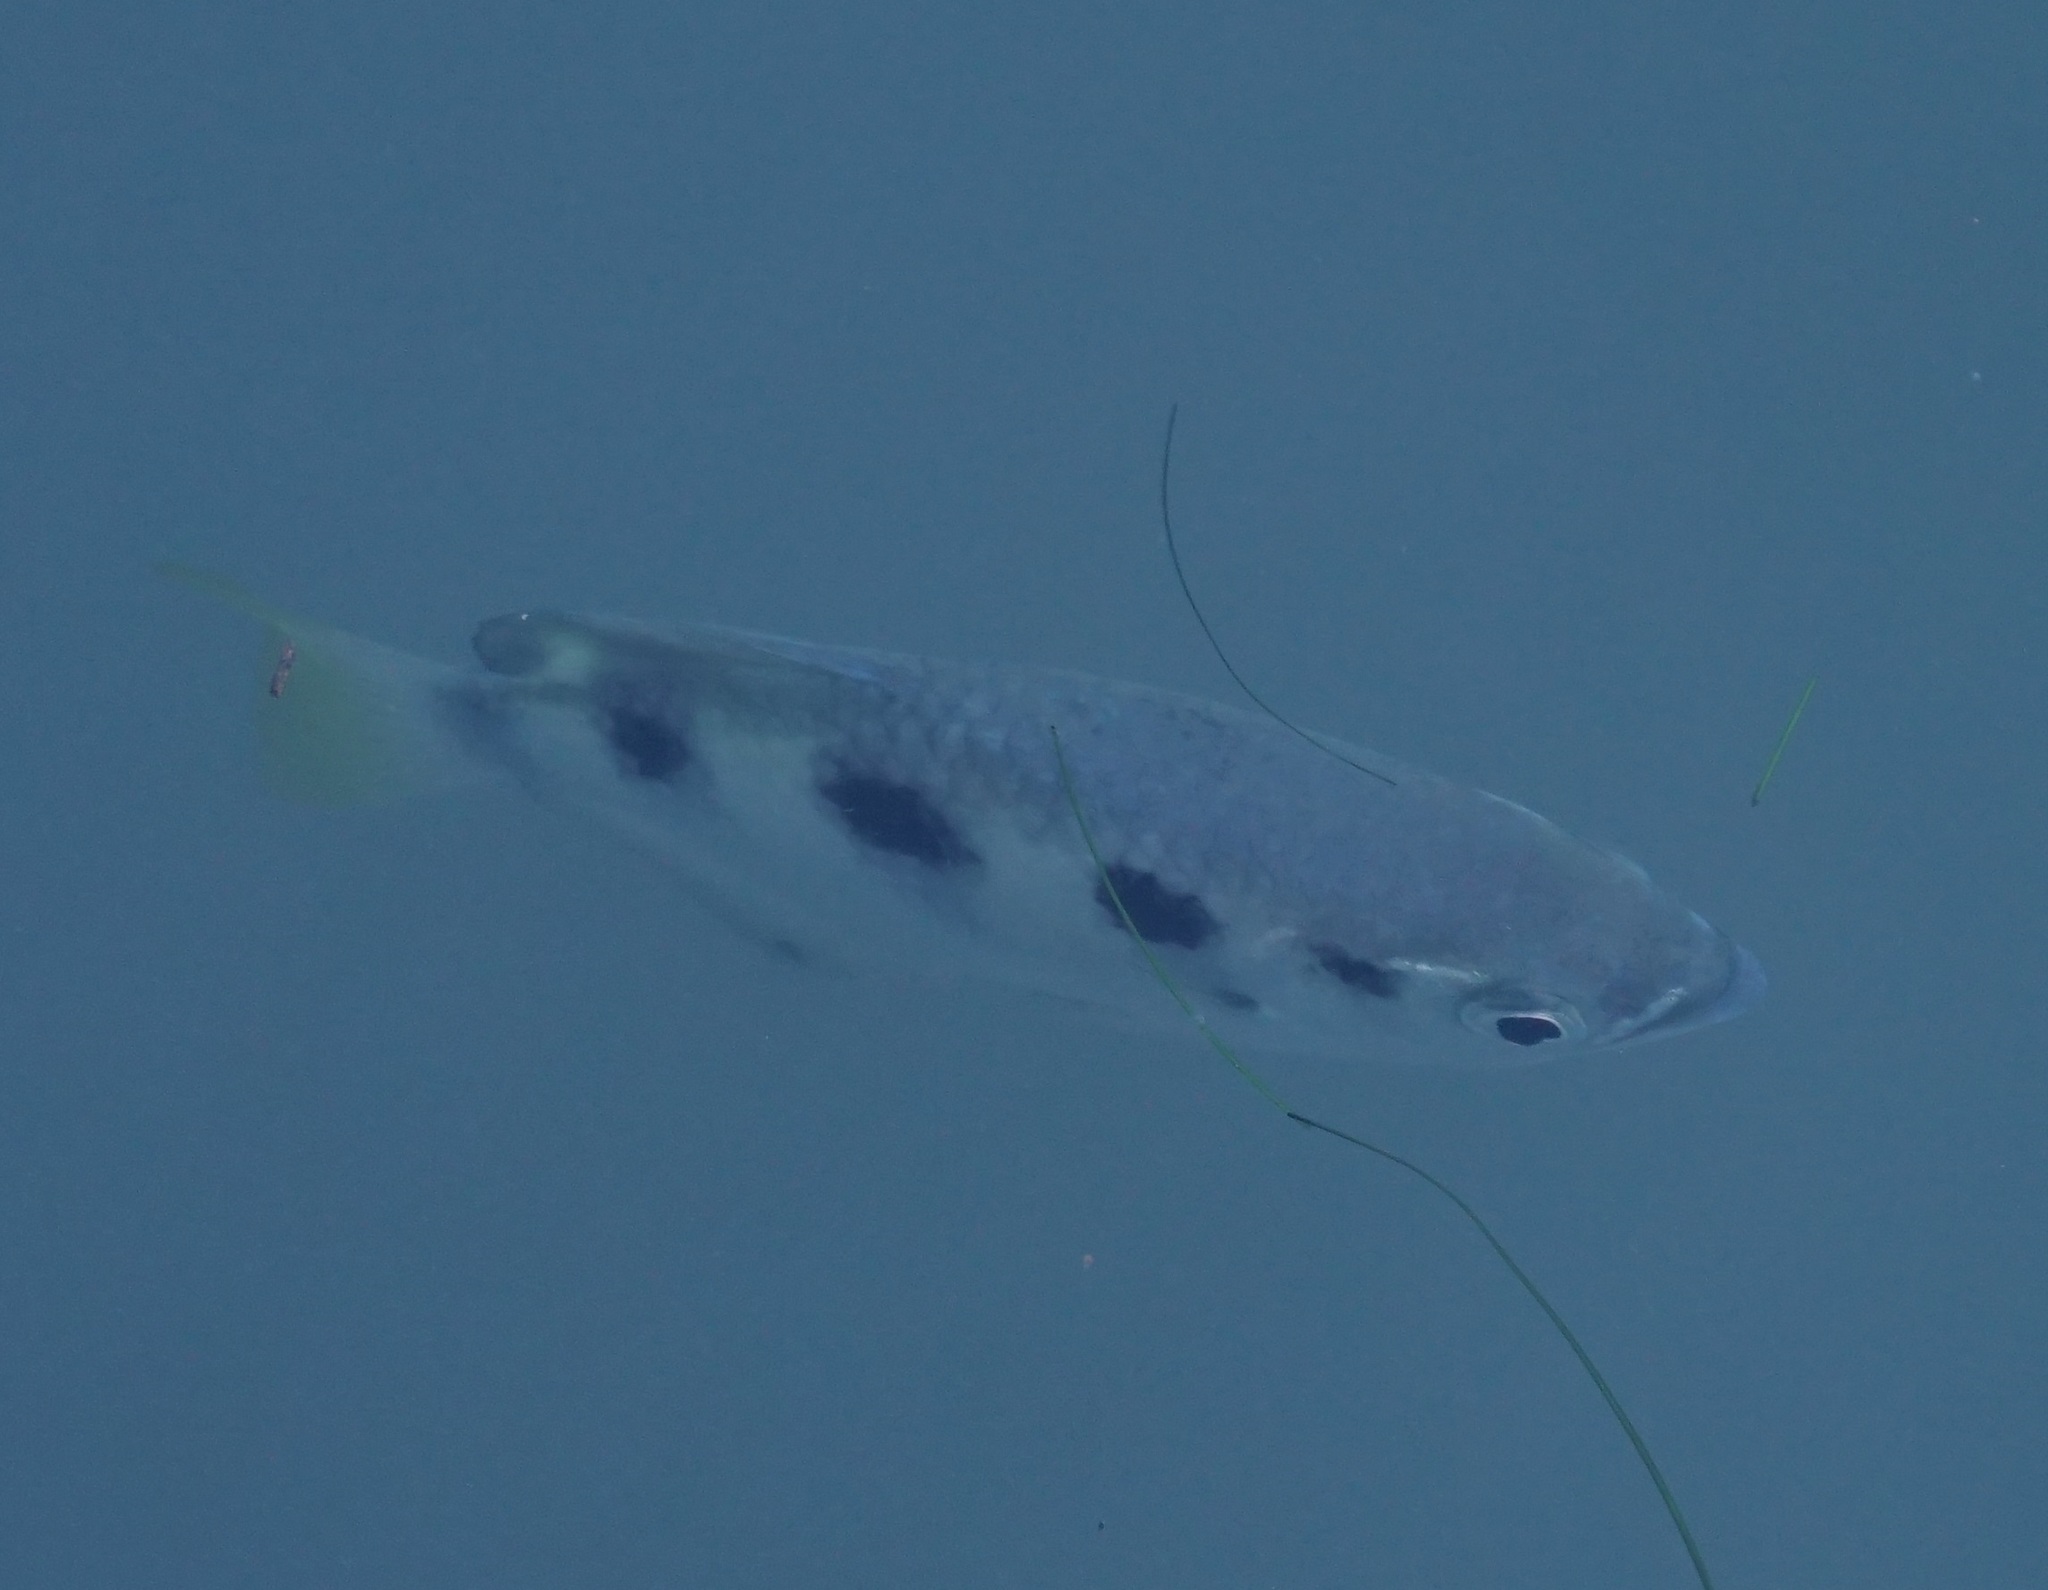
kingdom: Animalia
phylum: Chordata
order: Perciformes
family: Toxotidae
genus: Toxotes
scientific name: Toxotes jaculatrix
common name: Banded archerfish
